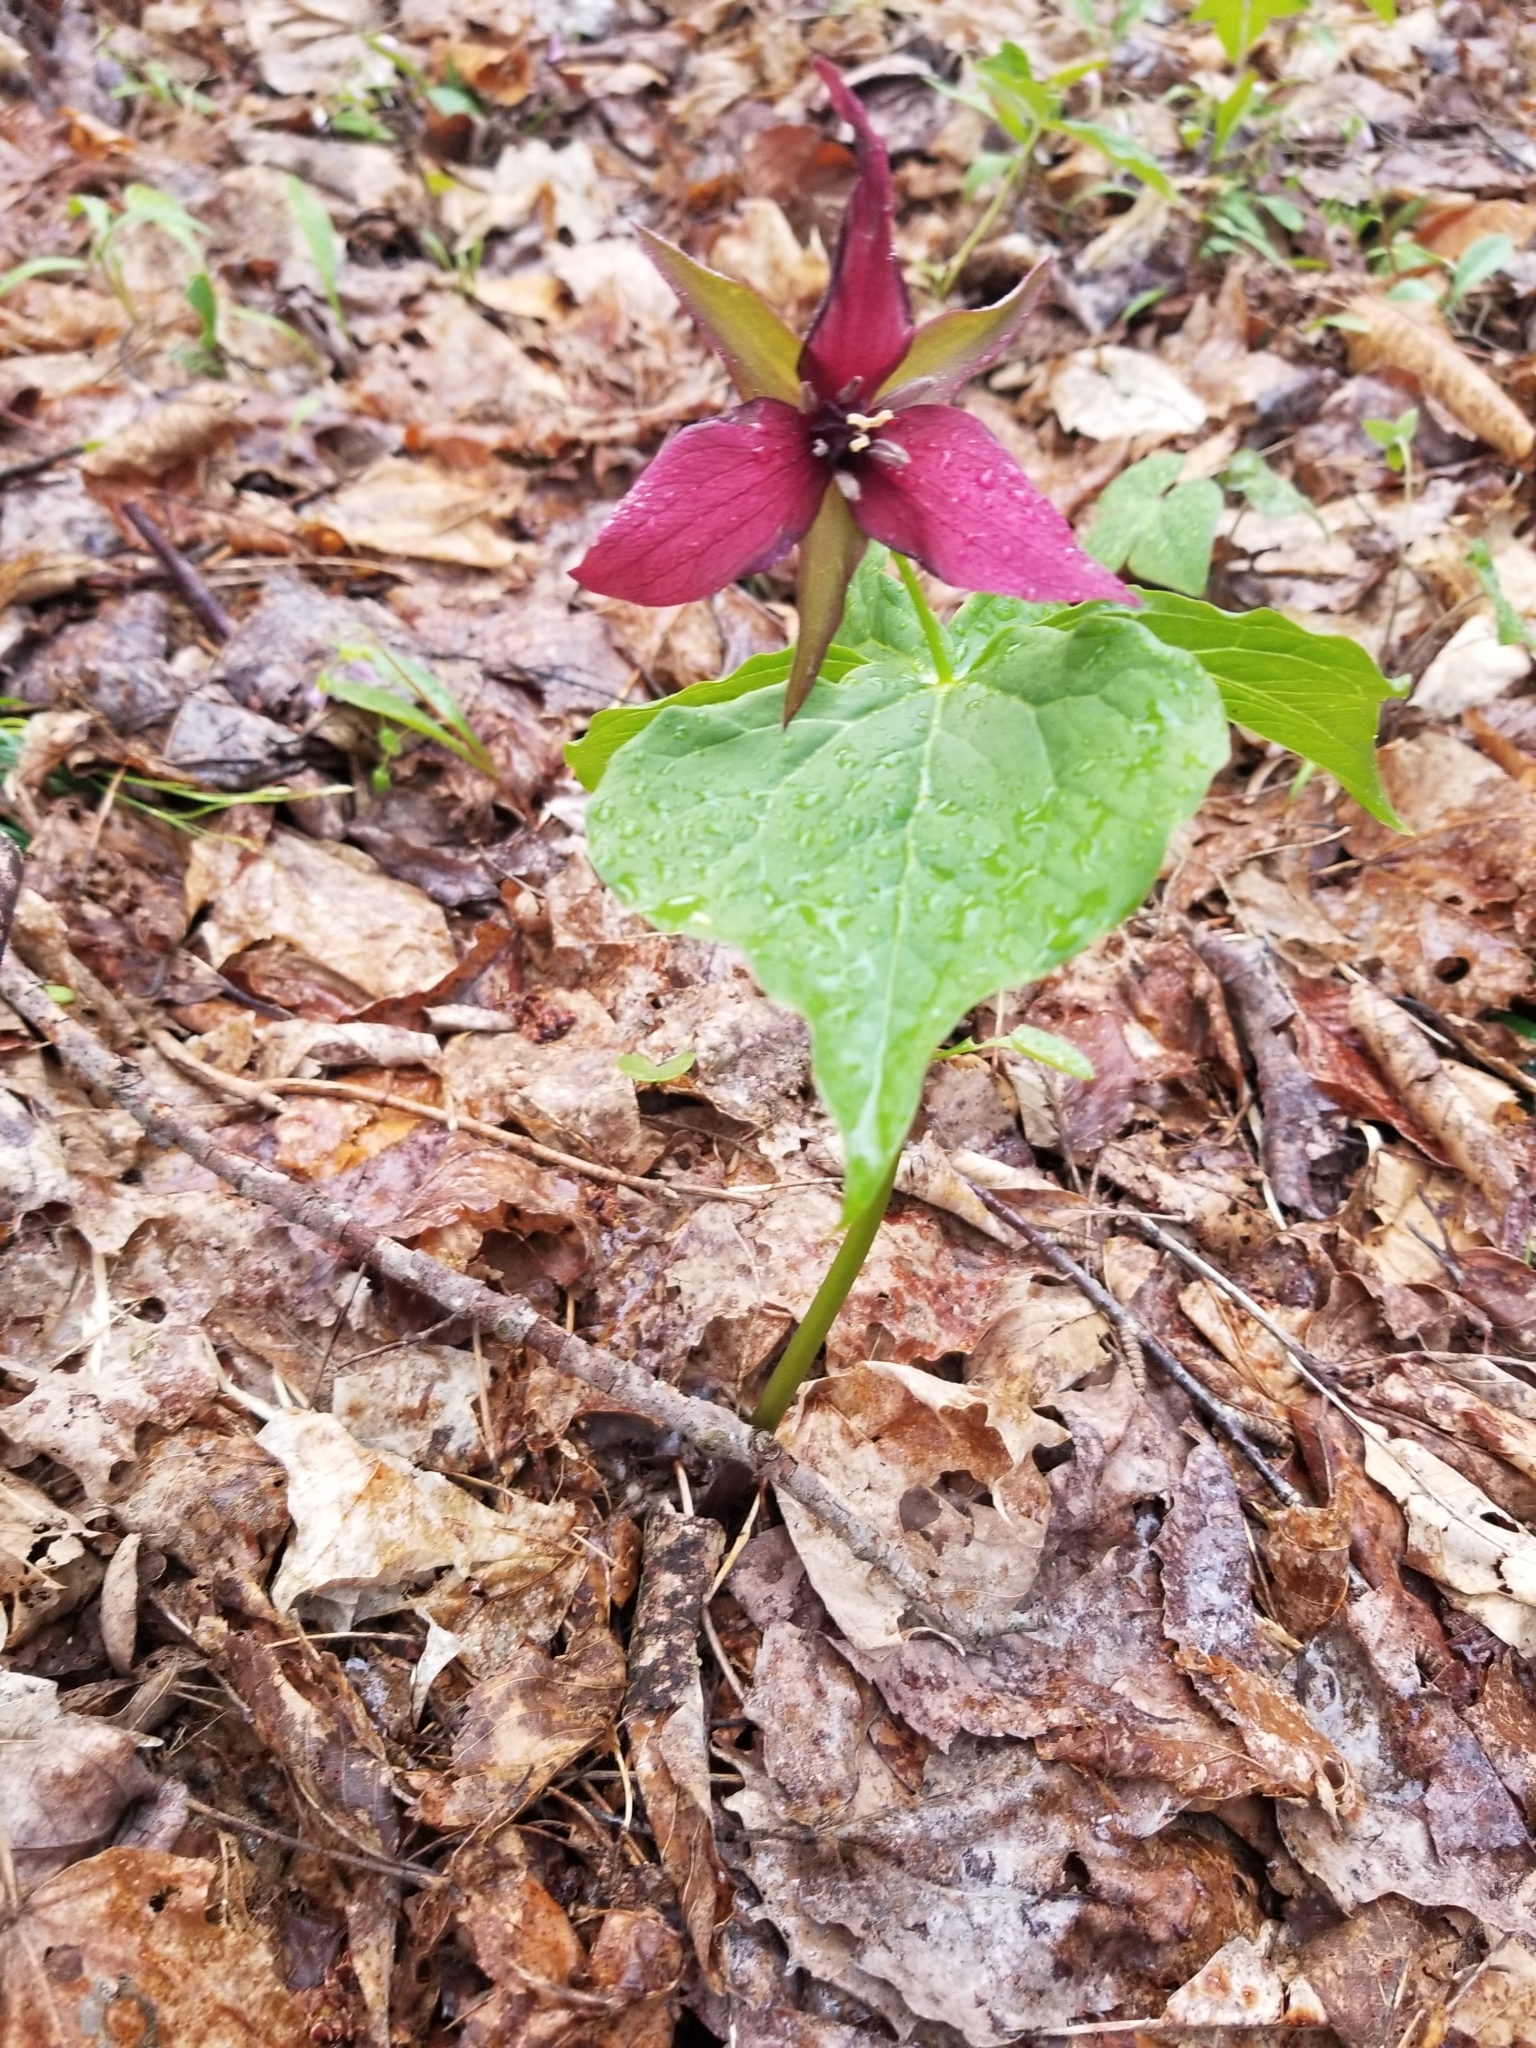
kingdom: Plantae
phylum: Tracheophyta
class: Liliopsida
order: Liliales
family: Melanthiaceae
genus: Trillium
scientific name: Trillium erectum
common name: Purple trillium
